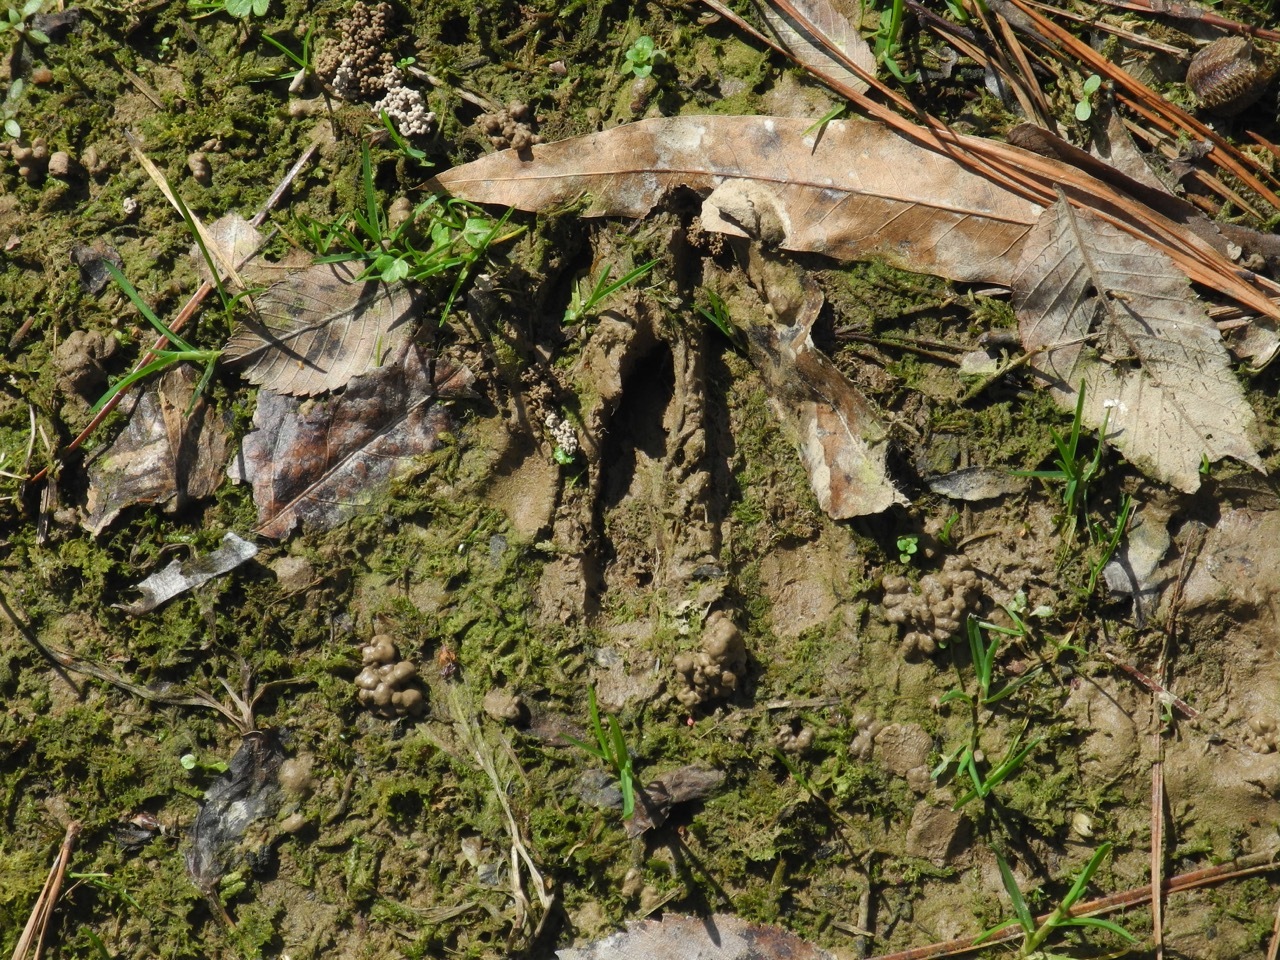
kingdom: Animalia
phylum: Chordata
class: Mammalia
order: Artiodactyla
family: Cervidae
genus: Odocoileus
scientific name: Odocoileus virginianus
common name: White-tailed deer
